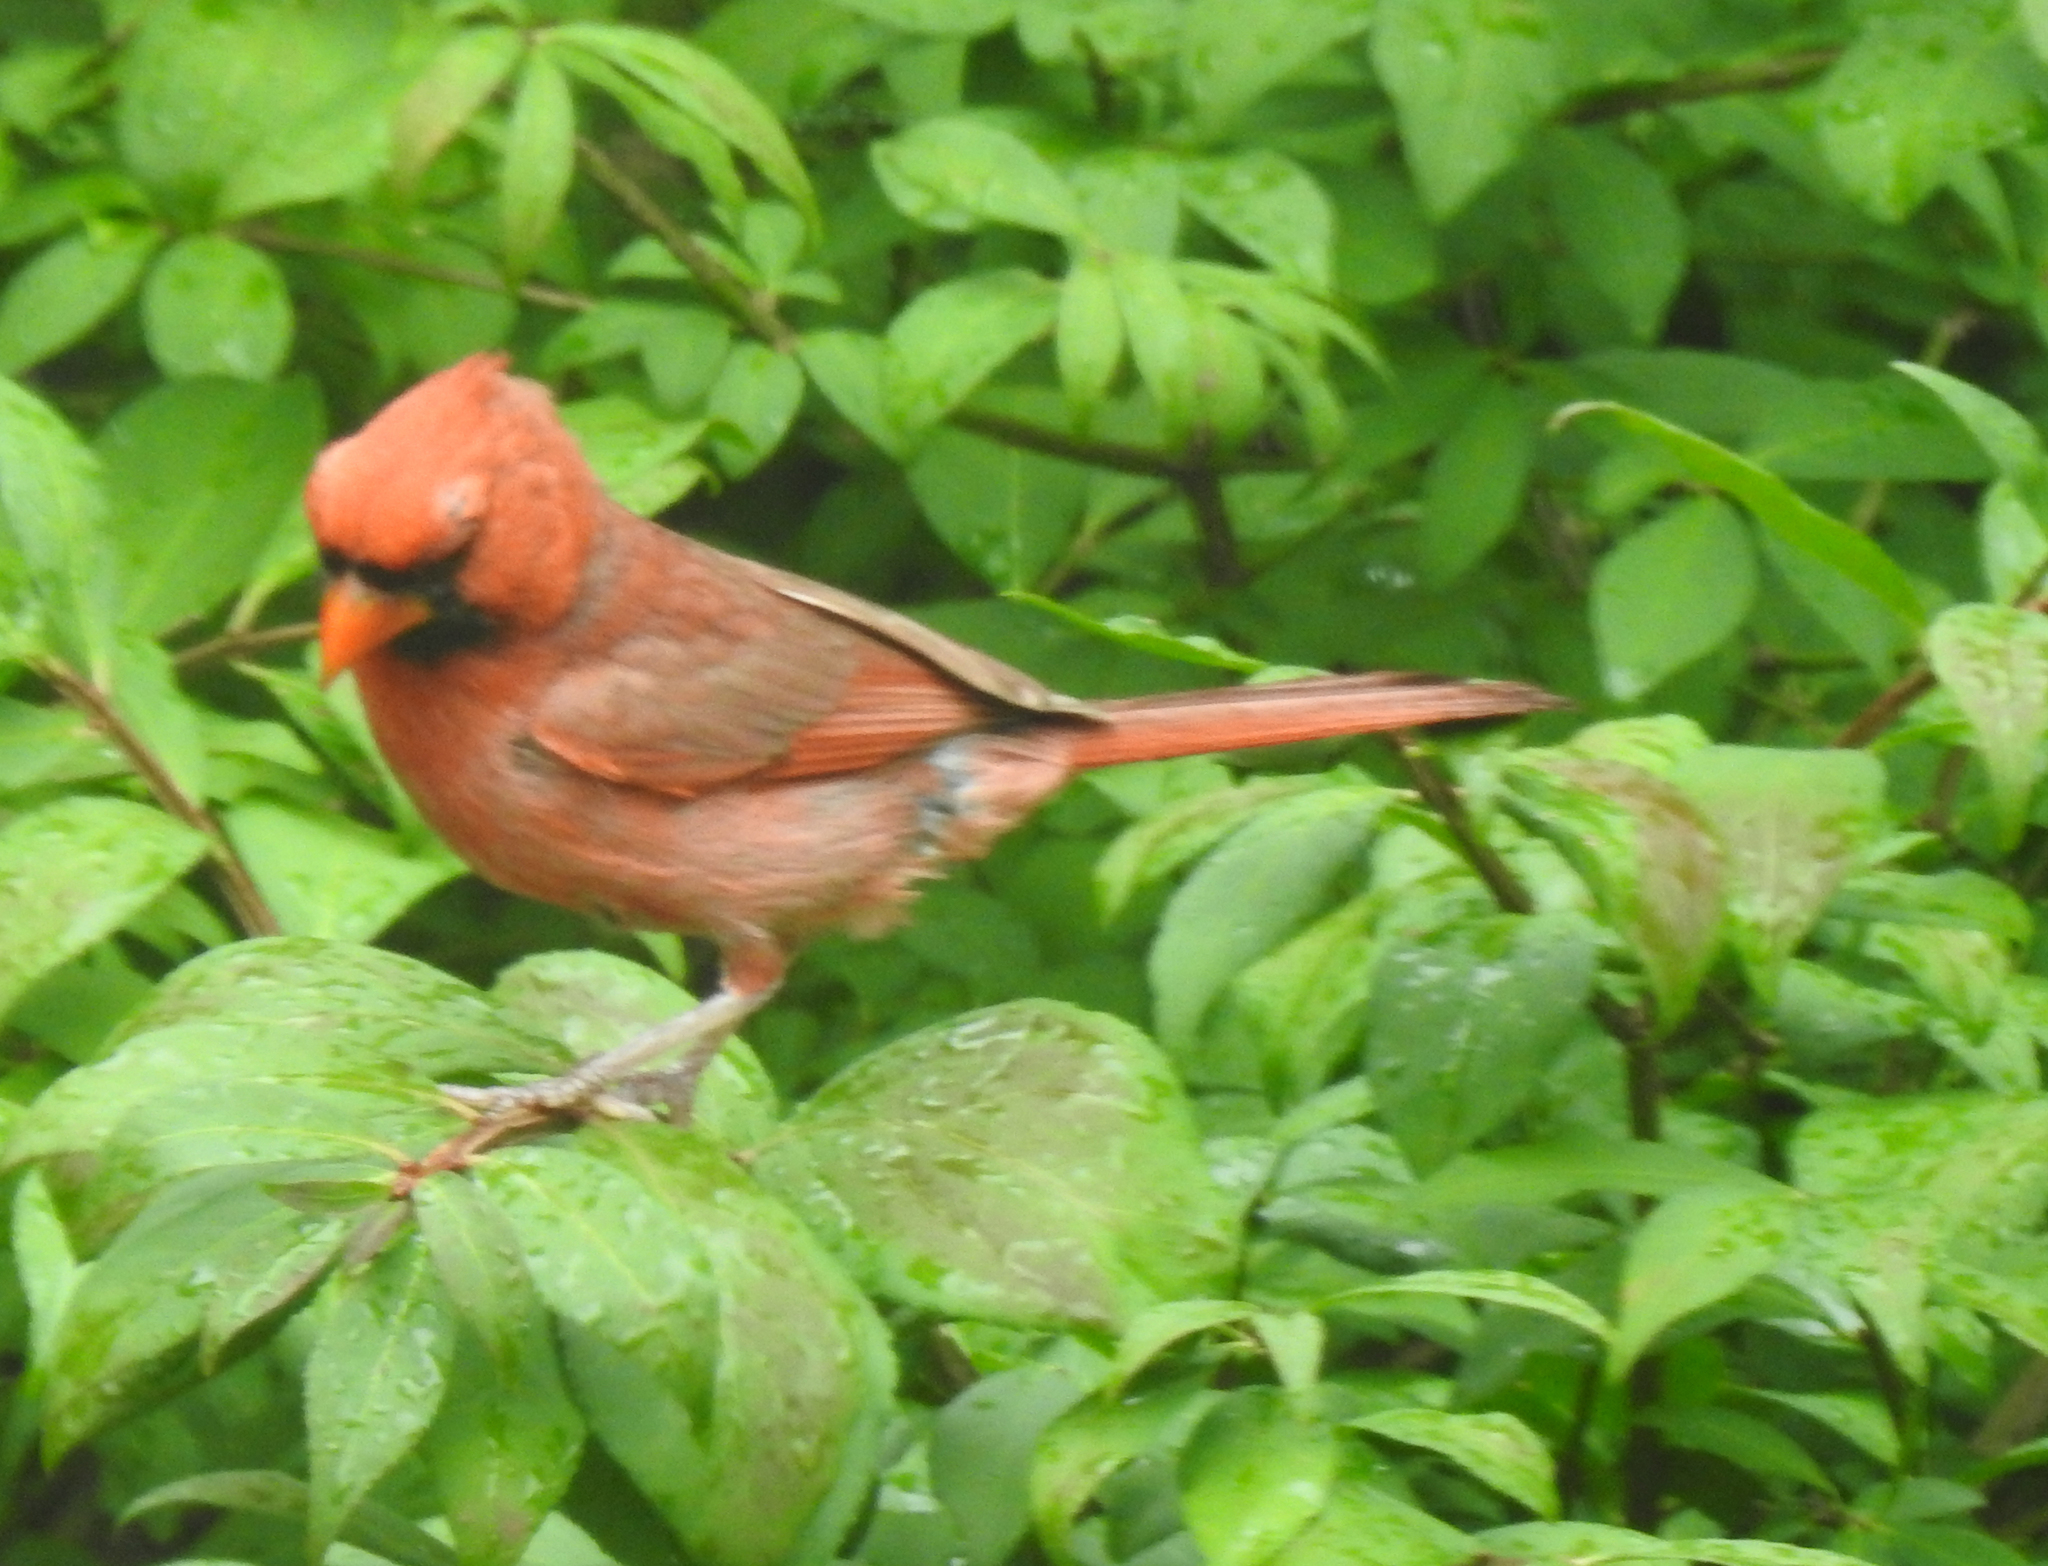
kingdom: Animalia
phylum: Chordata
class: Aves
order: Passeriformes
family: Cardinalidae
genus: Cardinalis
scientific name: Cardinalis cardinalis
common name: Northern cardinal
